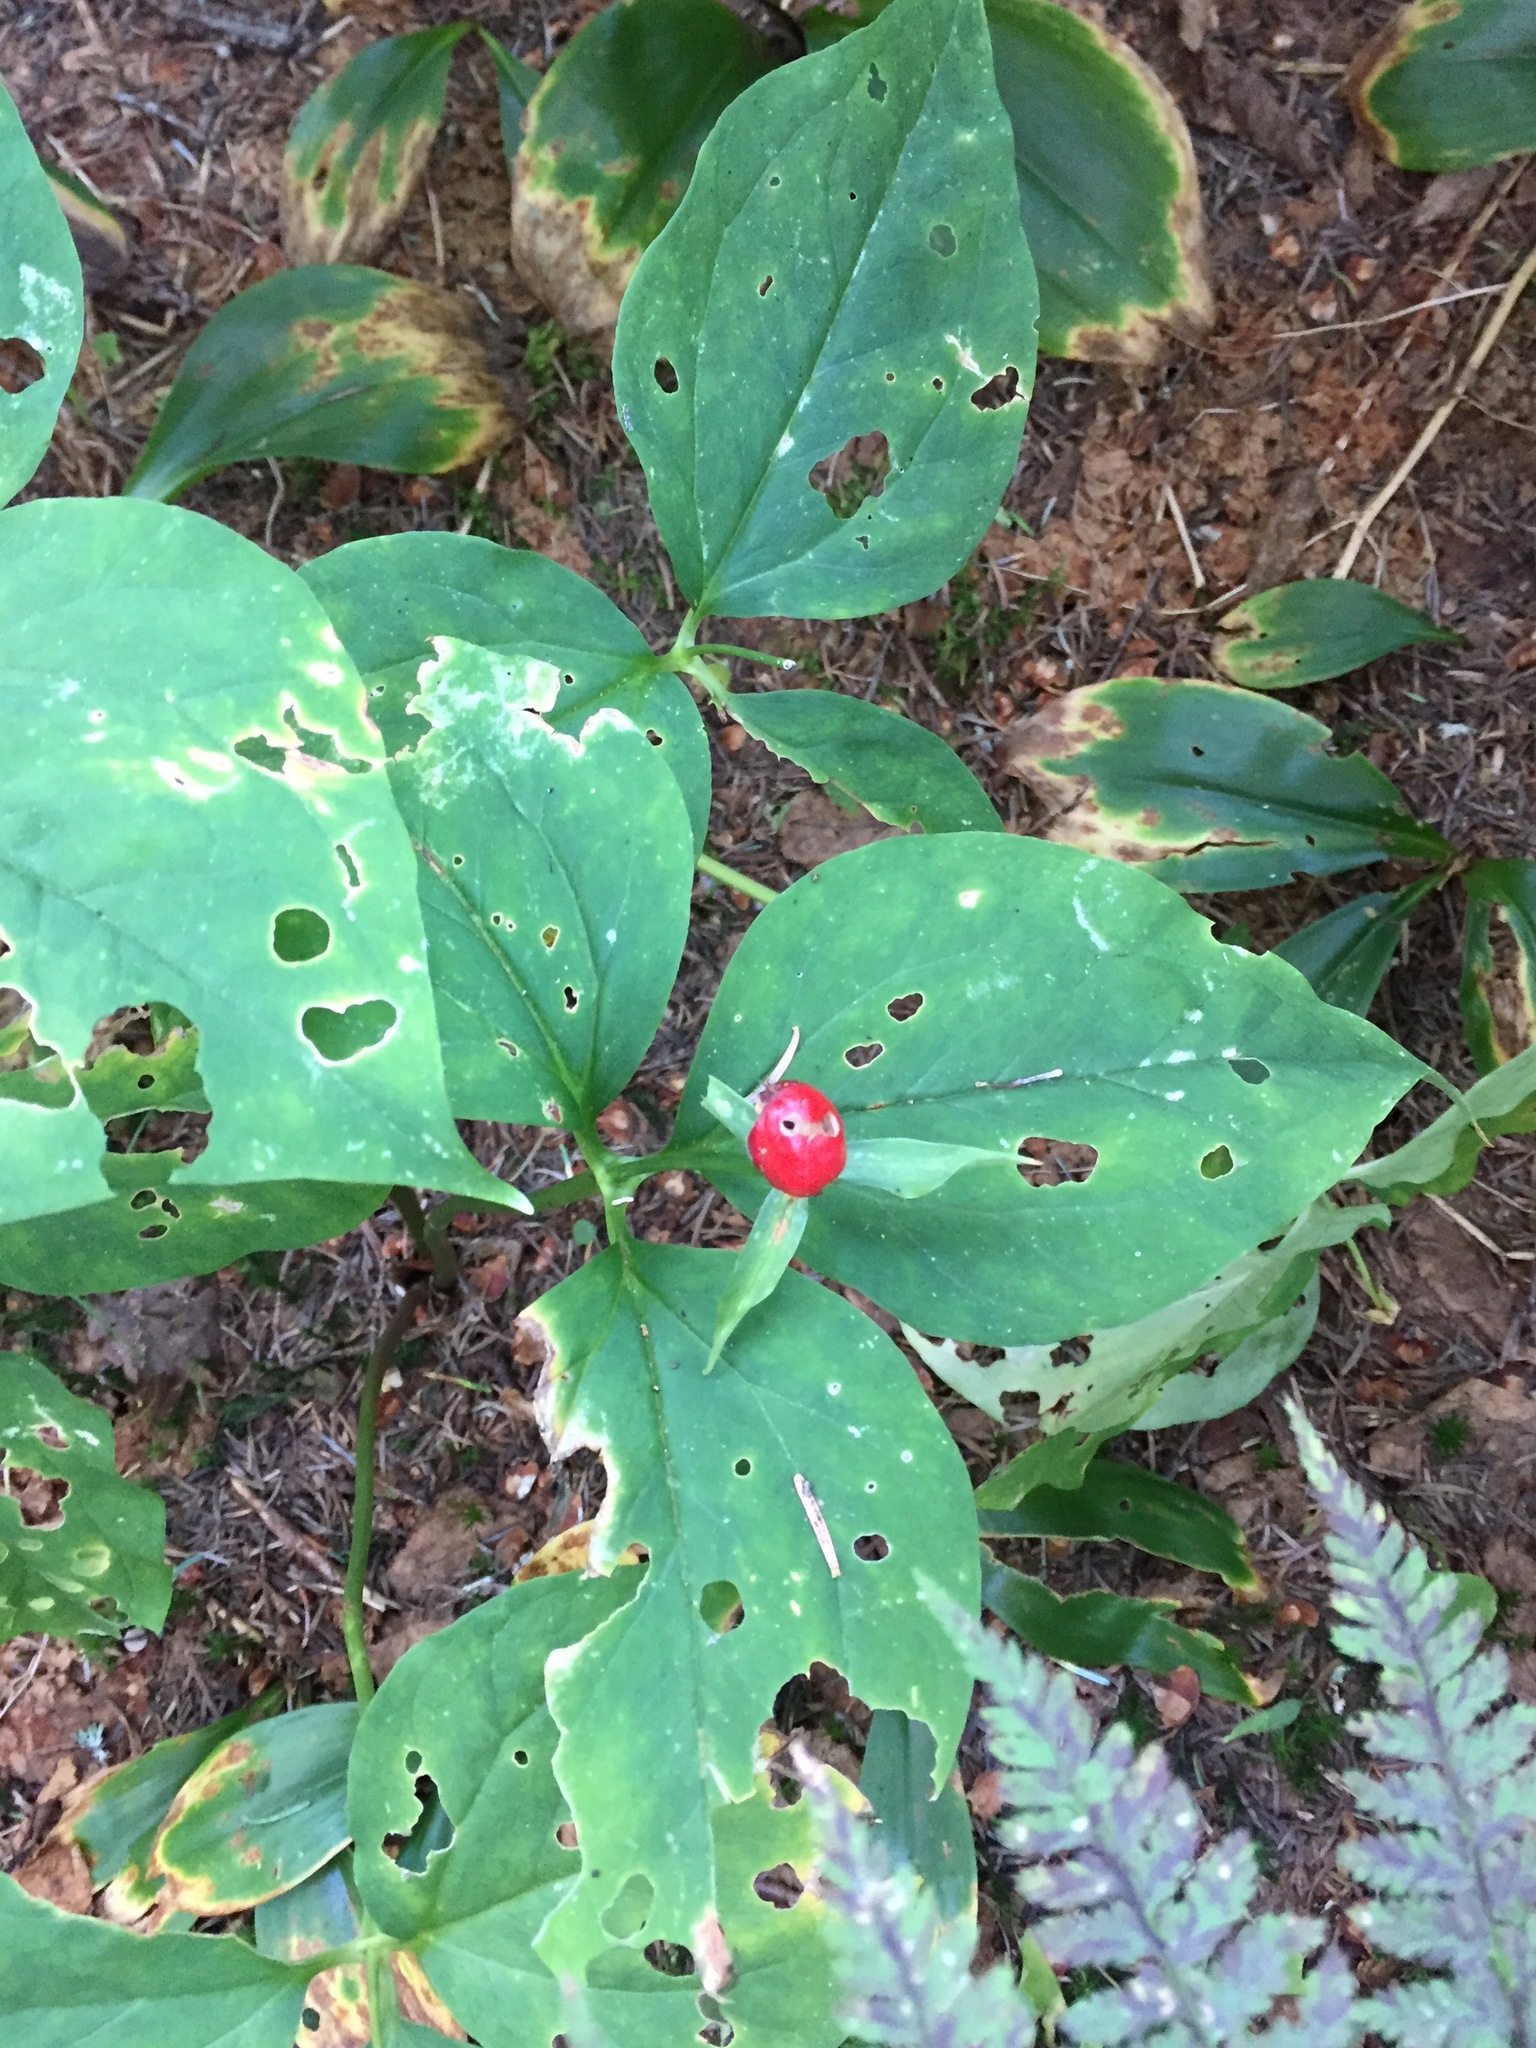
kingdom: Plantae
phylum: Tracheophyta
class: Liliopsida
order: Liliales
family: Melanthiaceae
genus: Trillium
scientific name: Trillium undulatum
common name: Paint trillium
